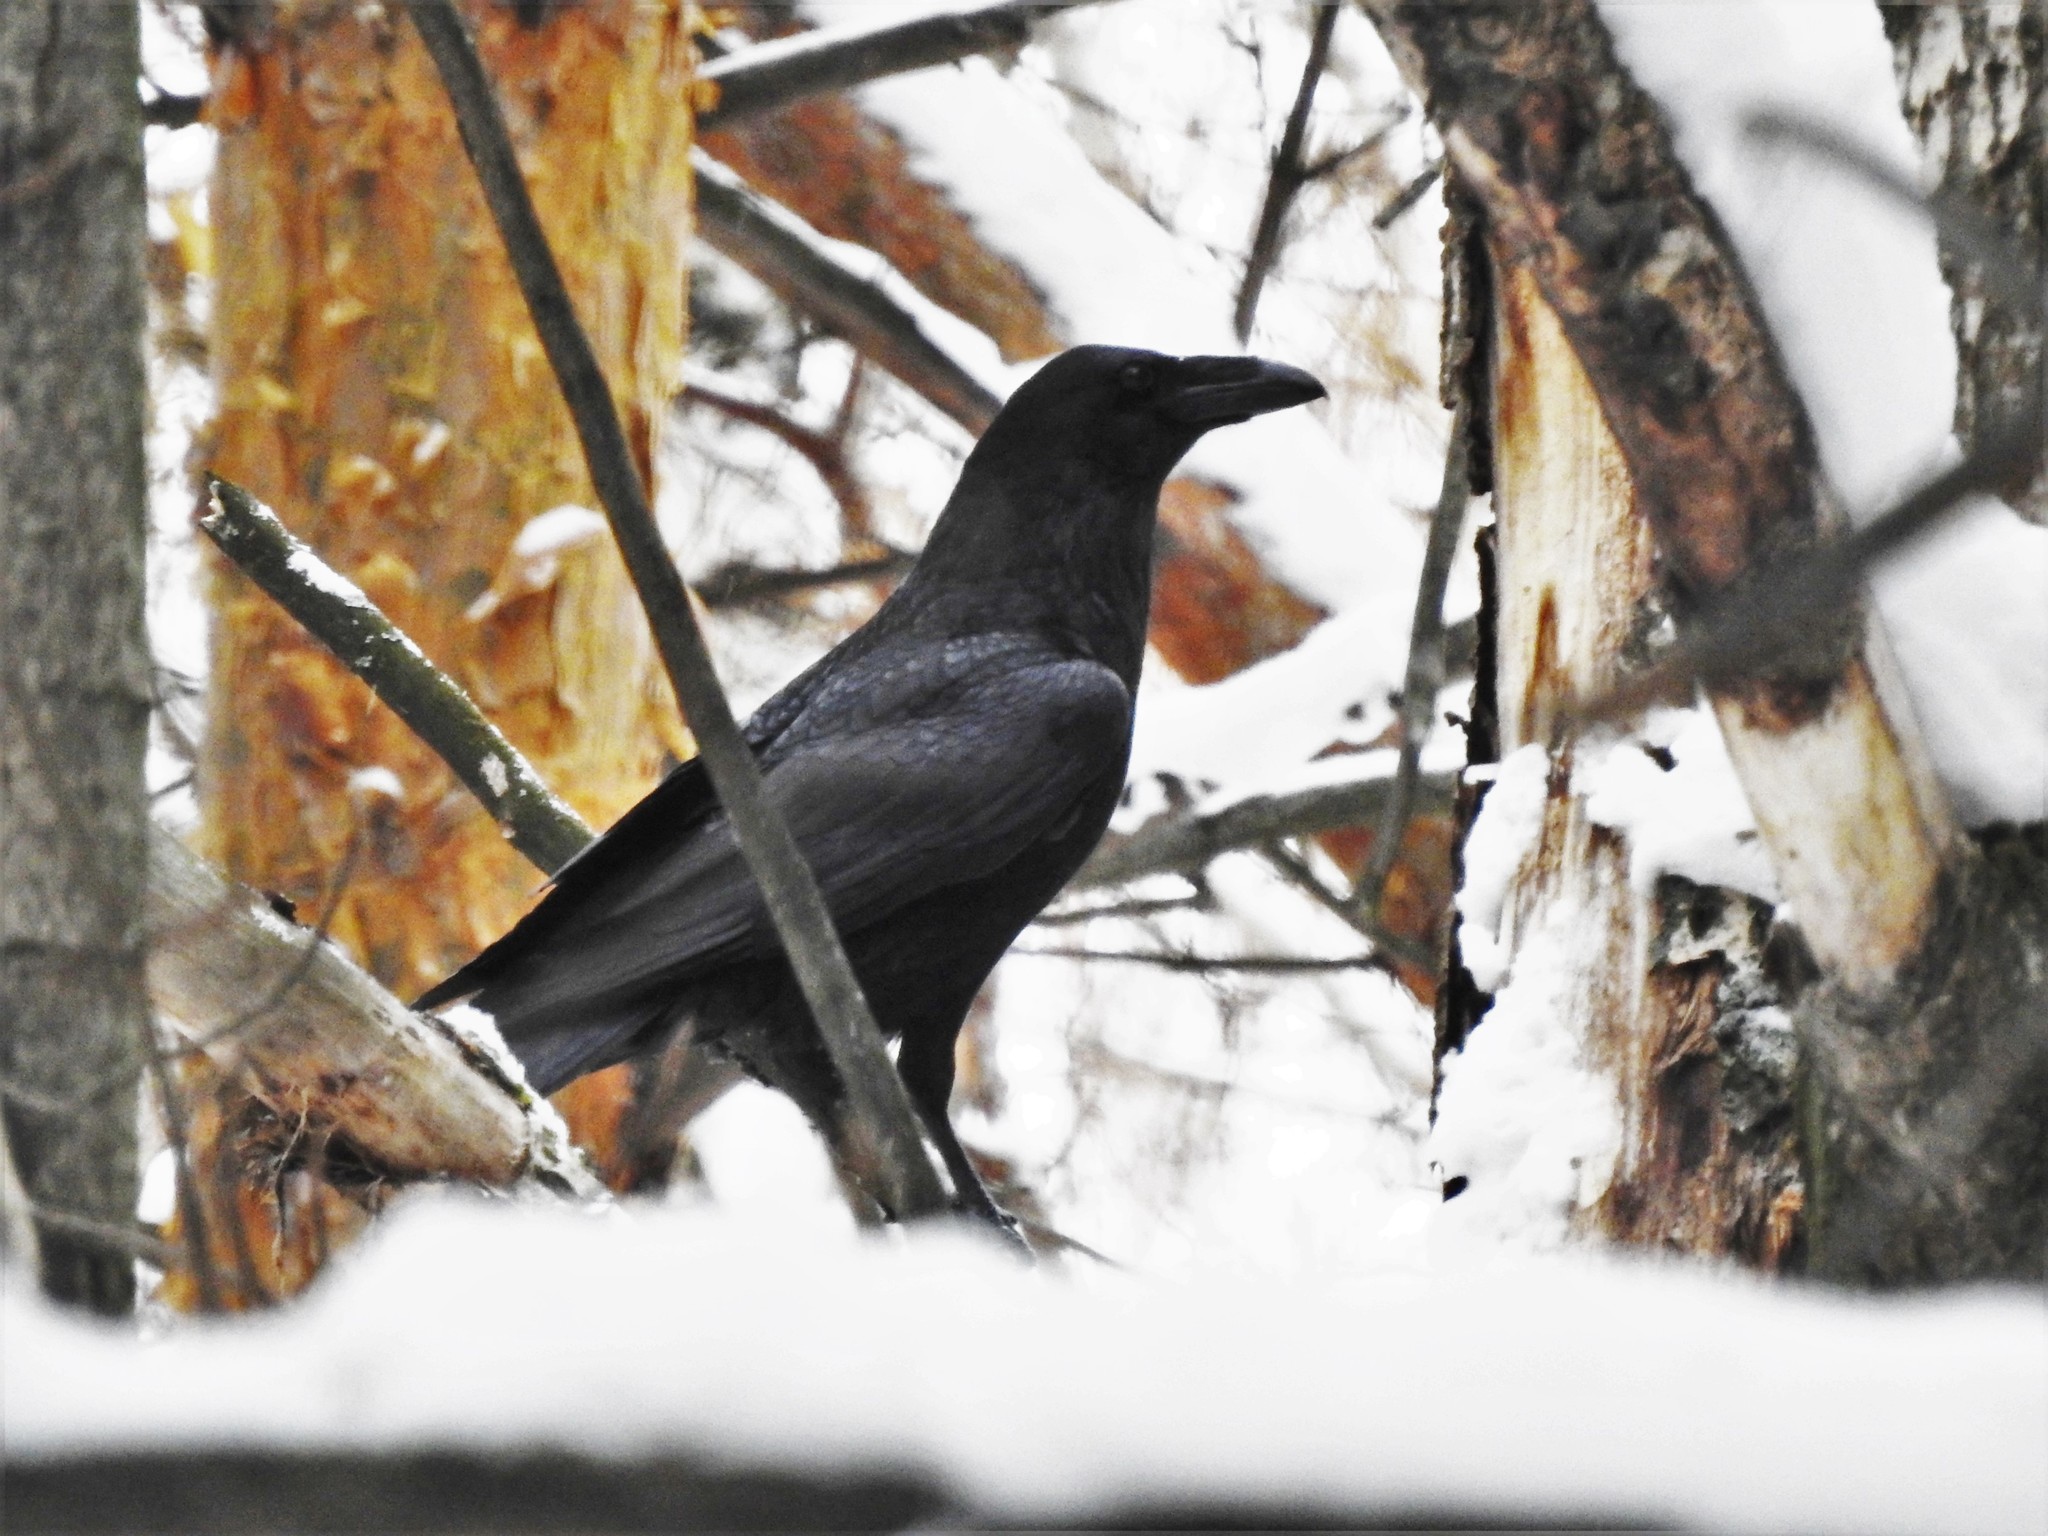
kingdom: Animalia
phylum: Chordata
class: Aves
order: Passeriformes
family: Corvidae
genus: Corvus
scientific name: Corvus corax
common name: Common raven
